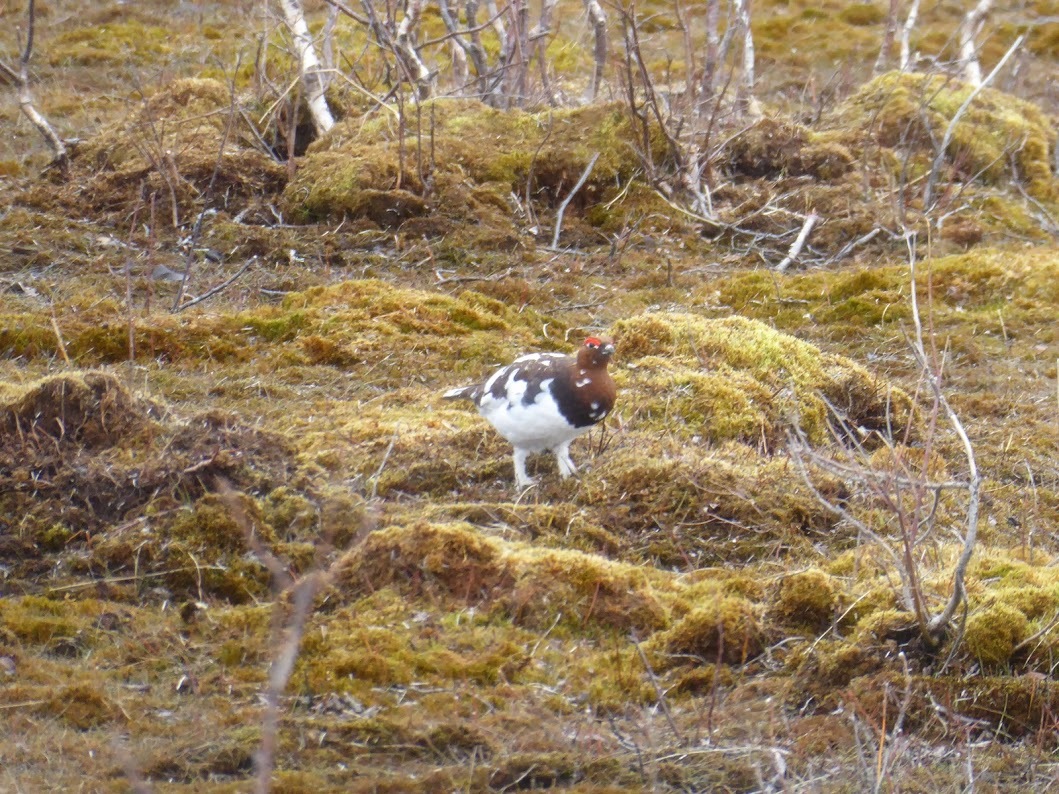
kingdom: Animalia
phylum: Chordata
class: Aves
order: Galliformes
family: Phasianidae
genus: Lagopus
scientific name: Lagopus lagopus
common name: Willow ptarmigan
